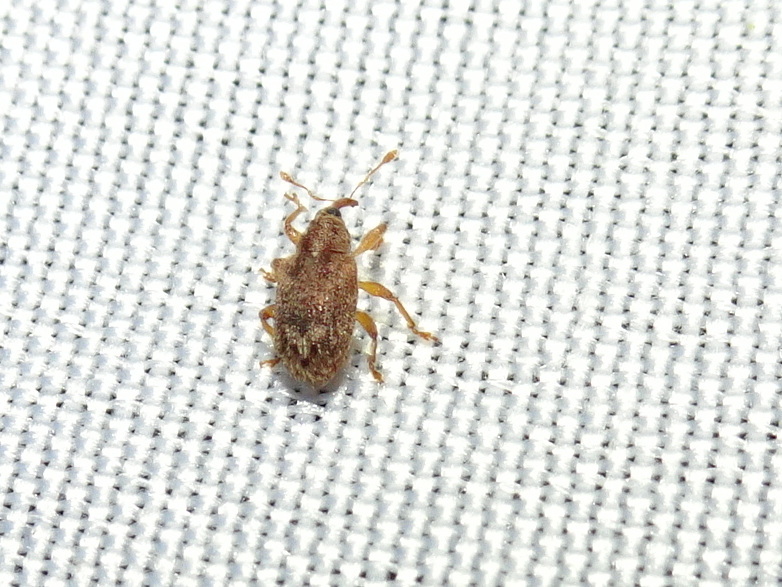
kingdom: Animalia
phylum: Arthropoda
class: Insecta
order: Coleoptera
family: Curculionidae
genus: Lignyodes
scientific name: Lignyodes horridulus
